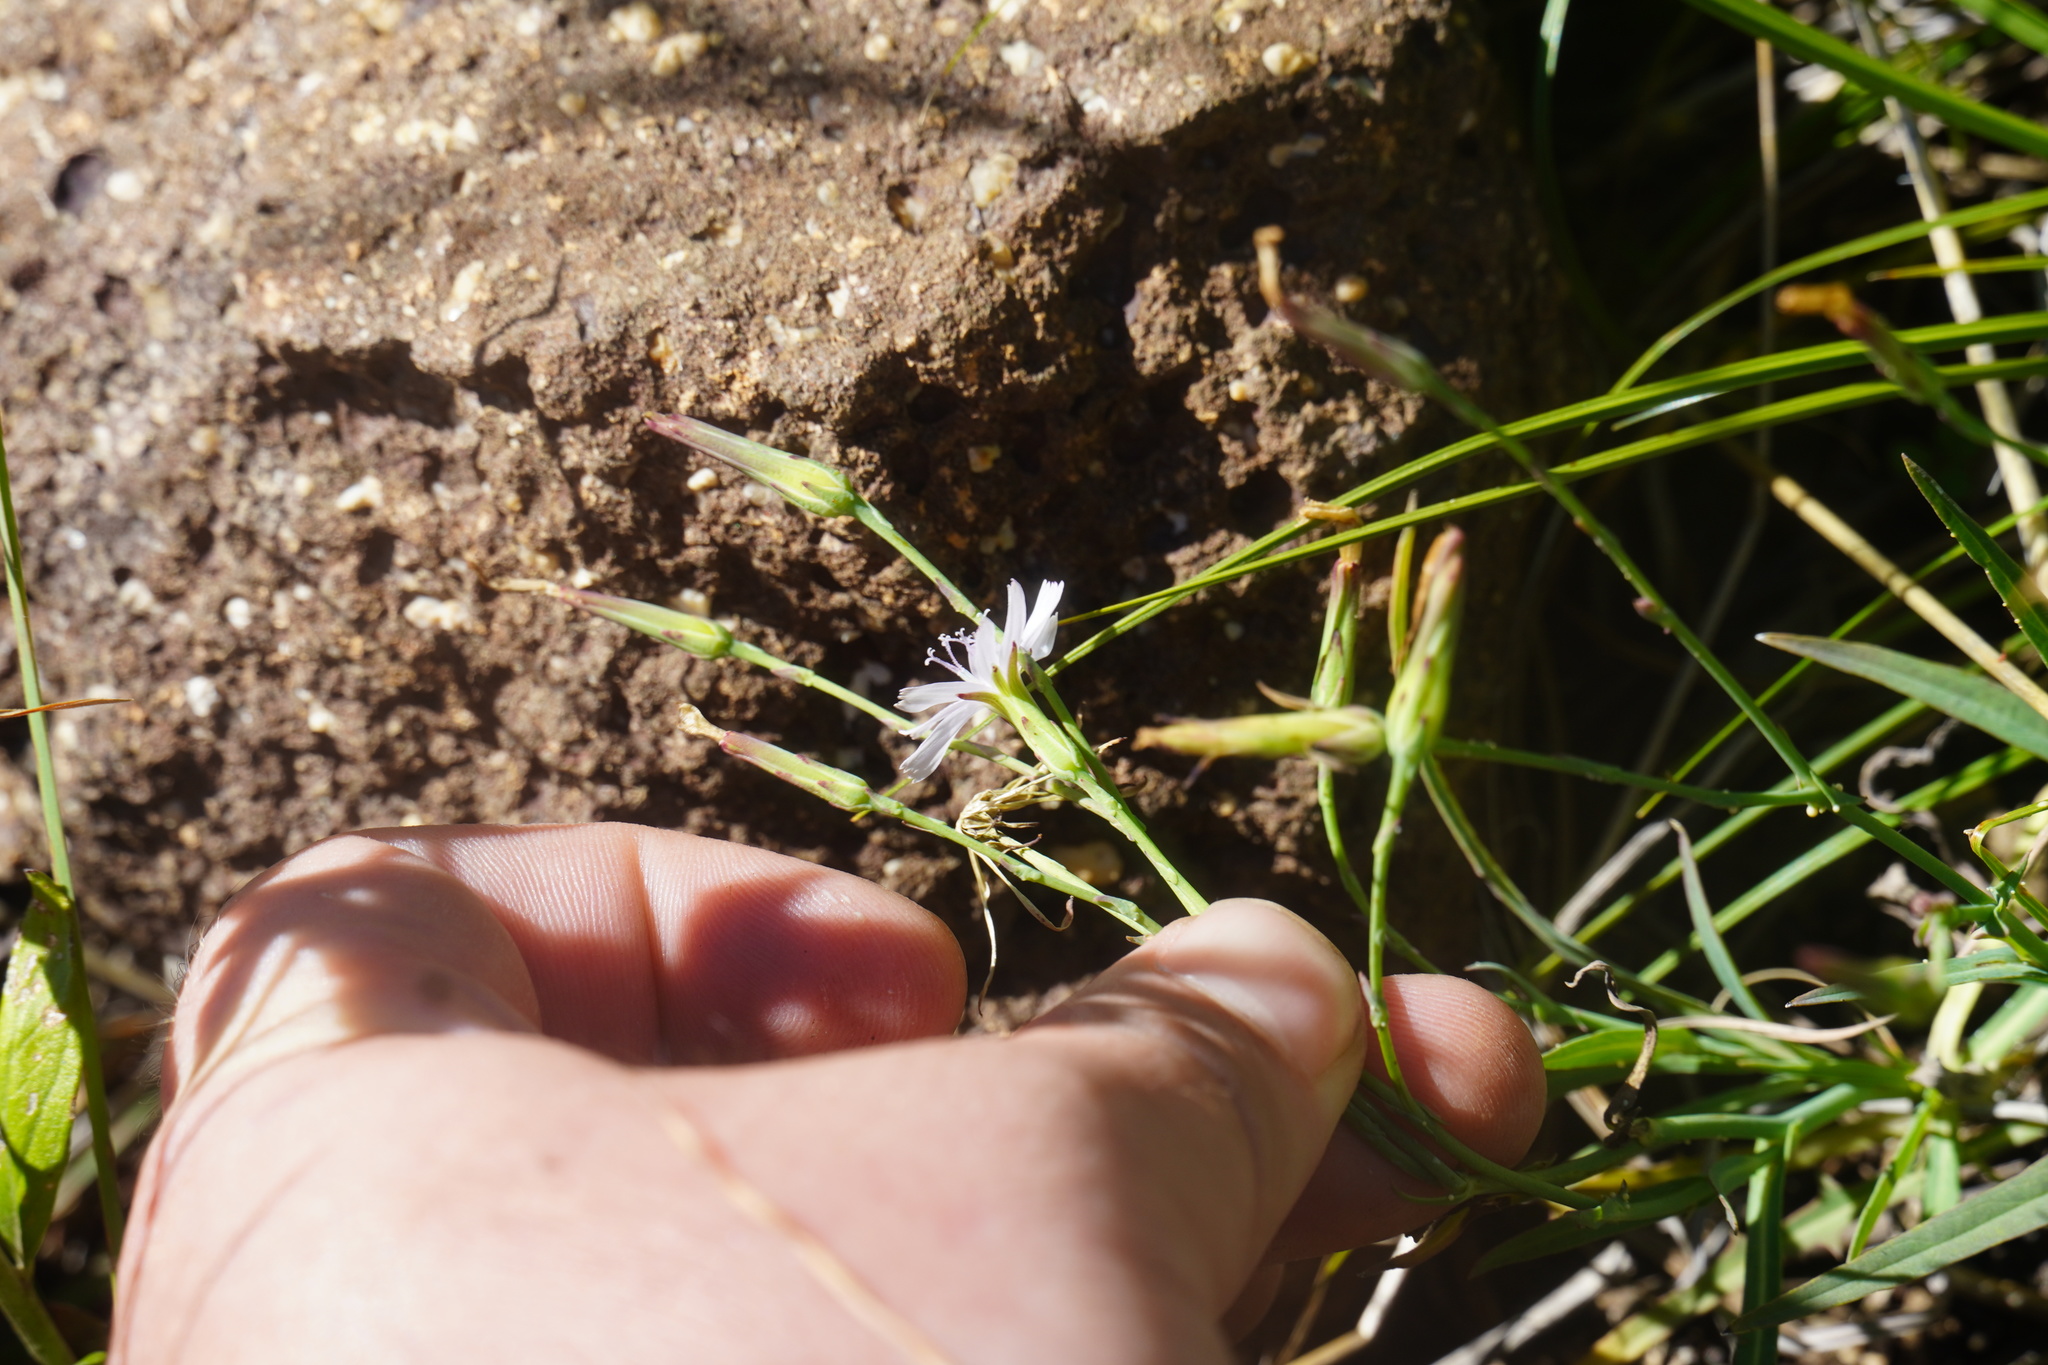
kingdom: Plantae
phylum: Tracheophyta
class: Magnoliopsida
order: Asterales
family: Asteraceae
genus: Lactuca
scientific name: Lactuca inermis
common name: Wild lettuce
